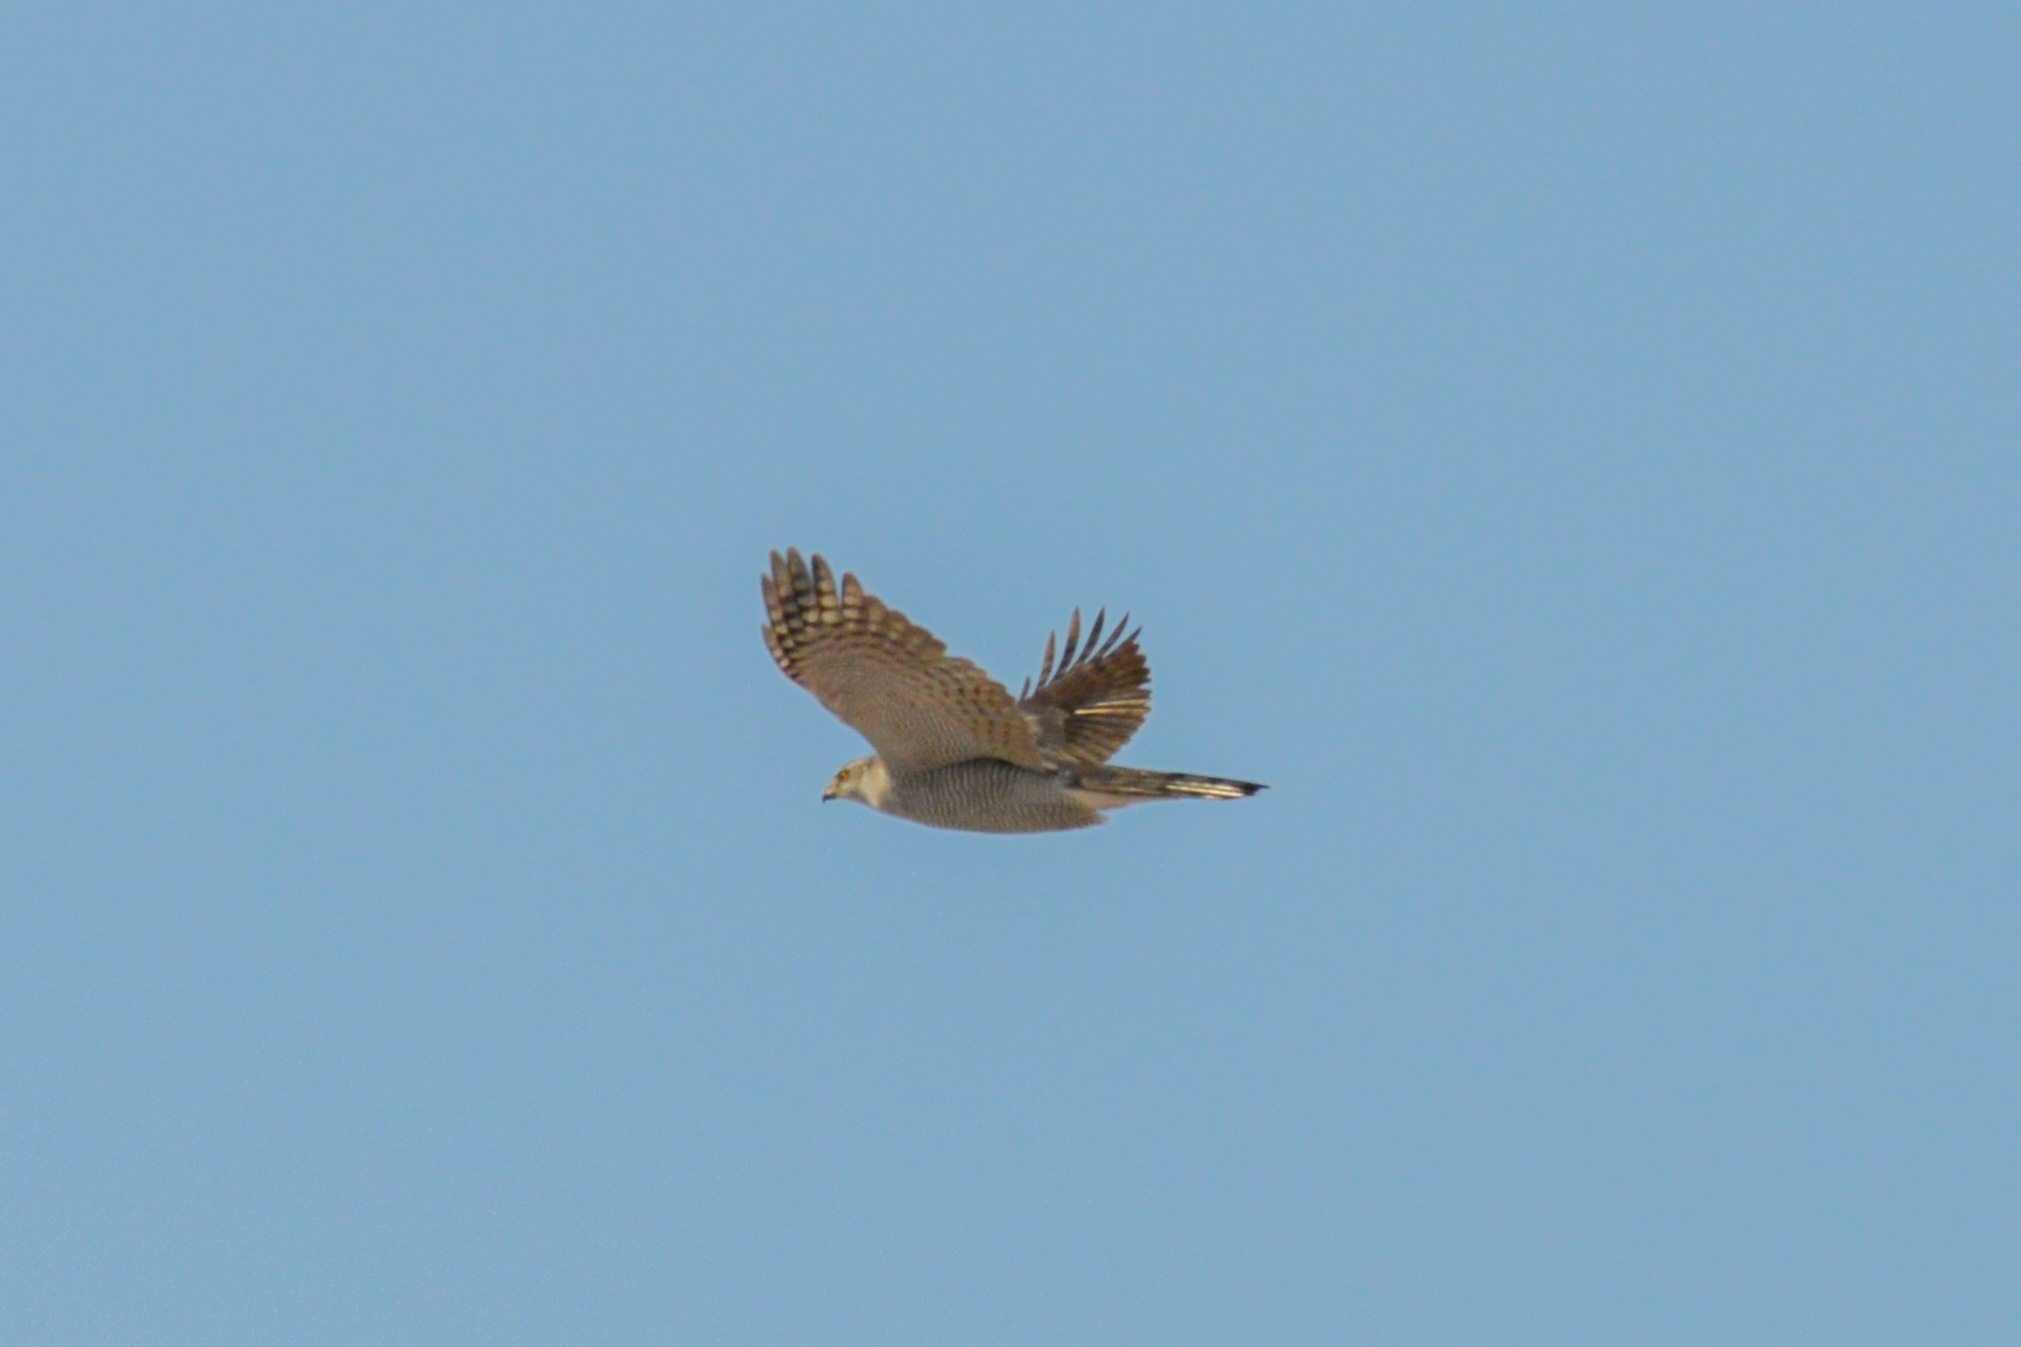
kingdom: Animalia
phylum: Chordata
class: Aves
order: Accipitriformes
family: Accipitridae
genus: Accipiter
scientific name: Accipiter gentilis
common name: Northern goshawk
